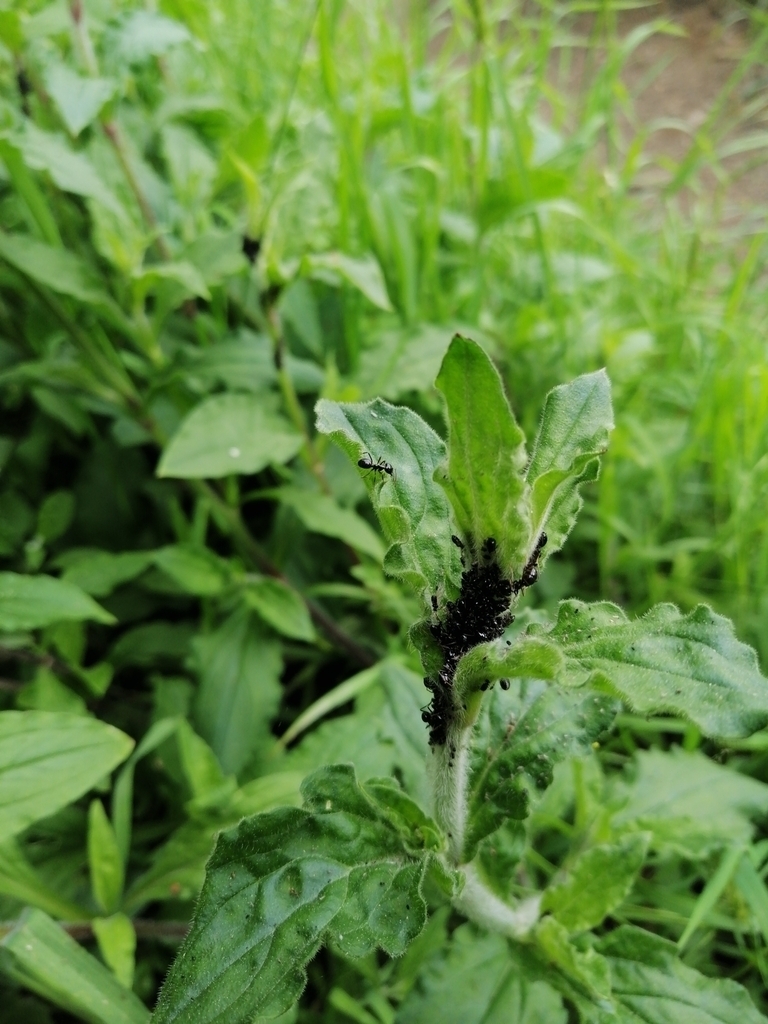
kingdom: Animalia
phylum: Arthropoda
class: Insecta
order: Hymenoptera
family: Formicidae
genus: Lasius
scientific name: Lasius fuliginosus
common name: Jet ant
